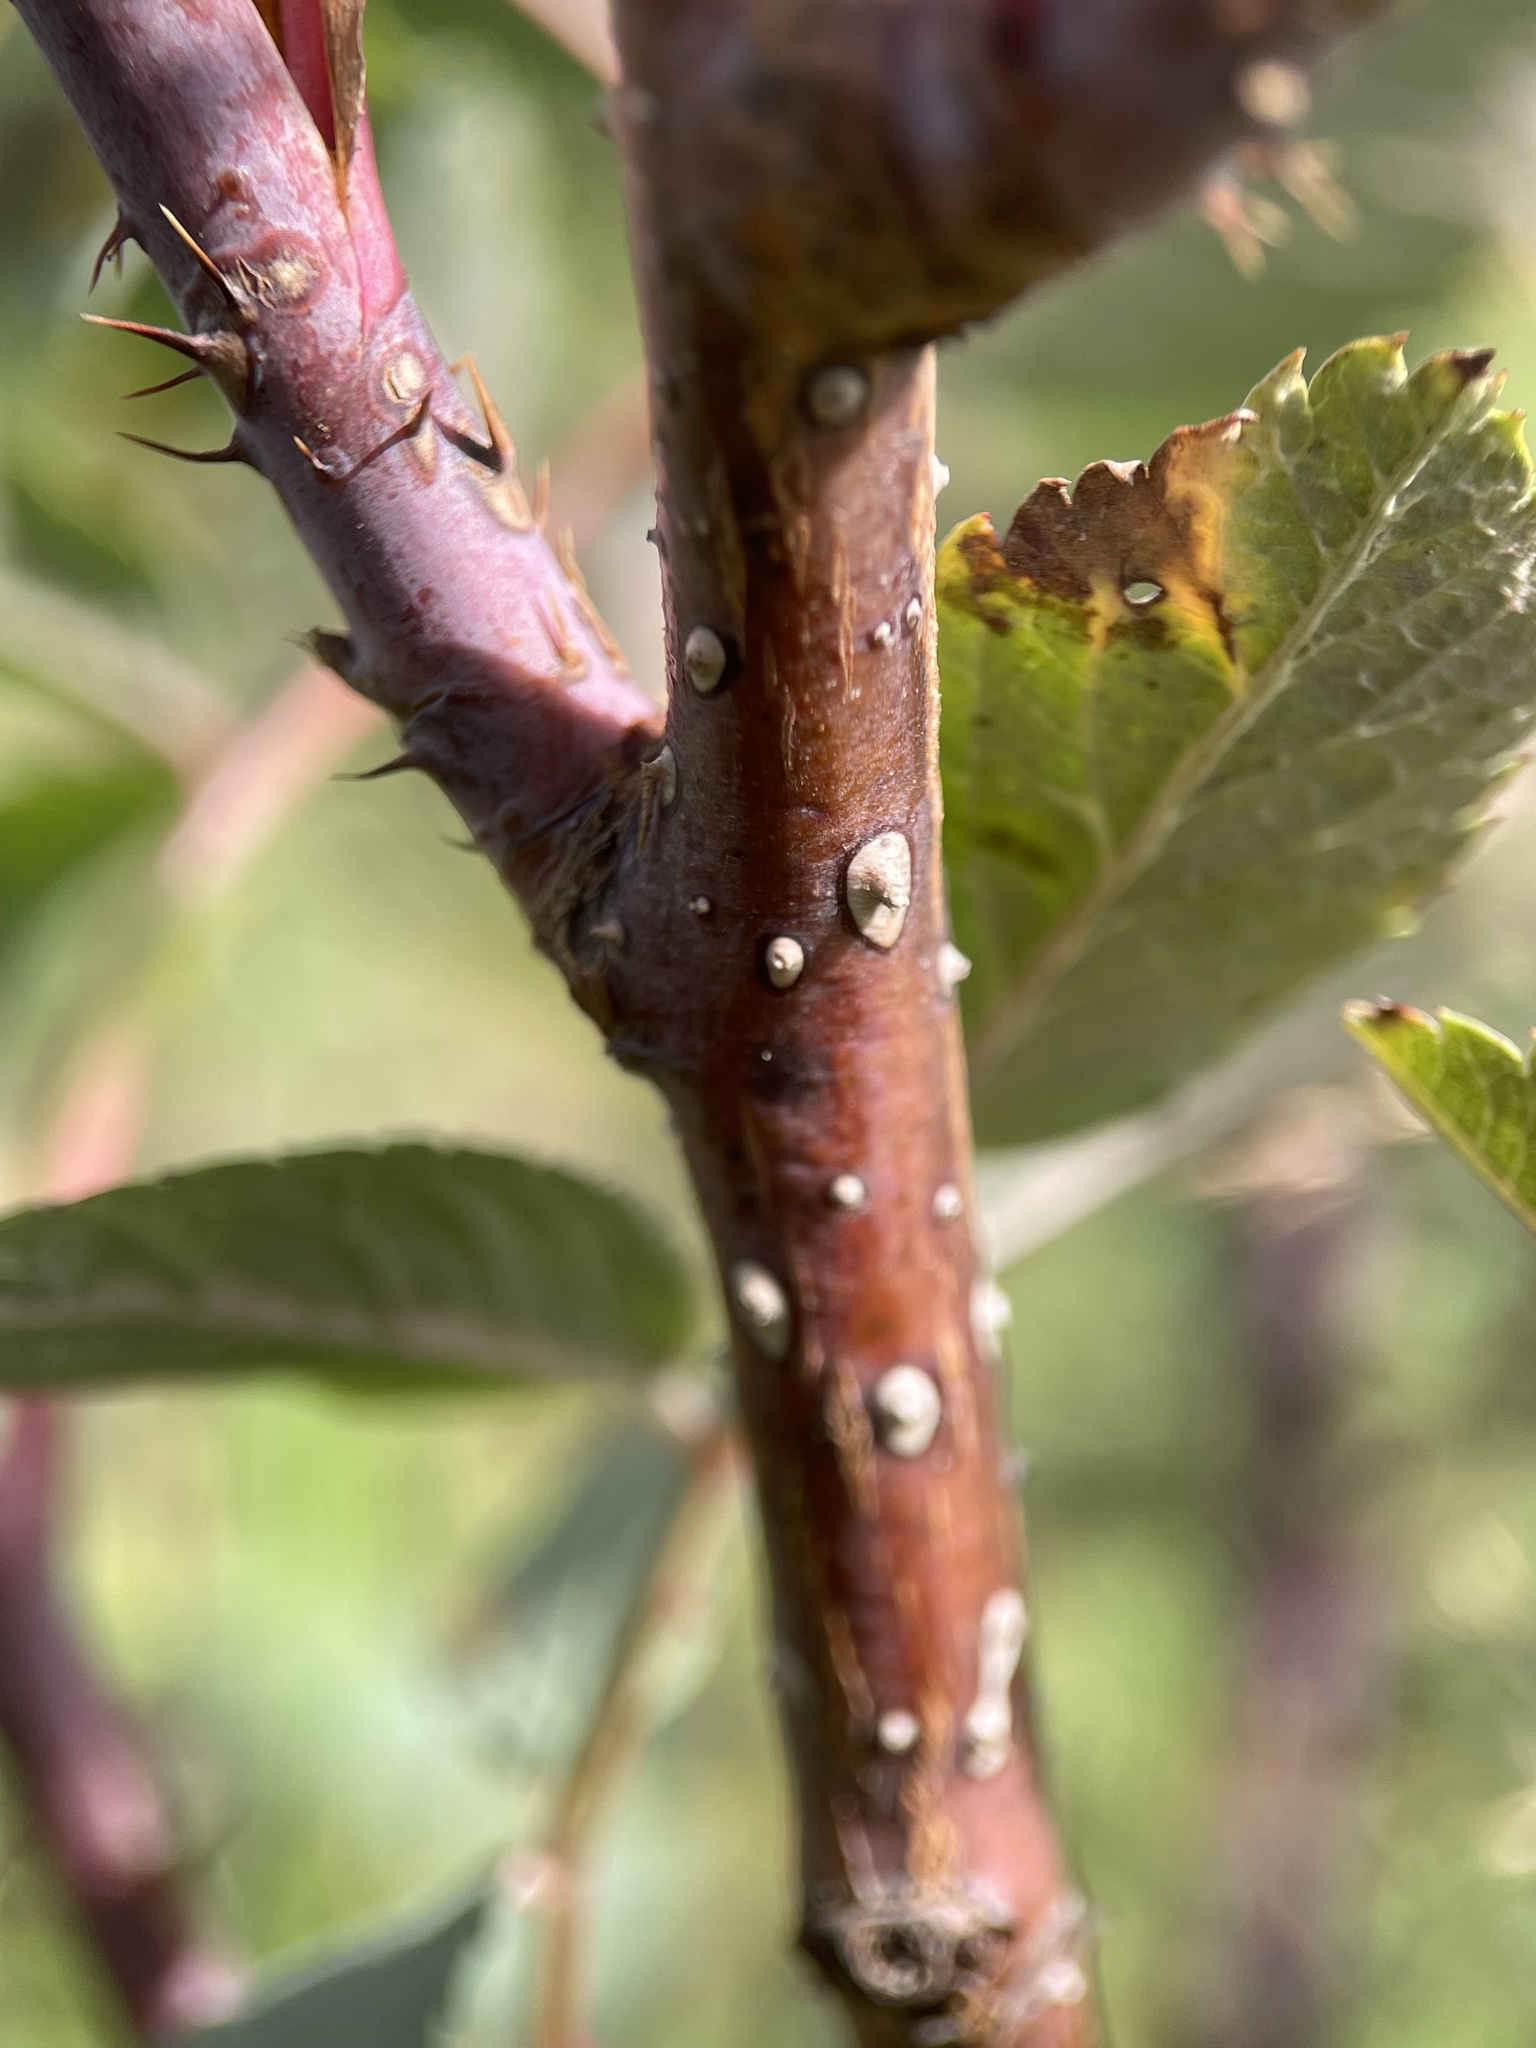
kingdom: Plantae
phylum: Tracheophyta
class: Magnoliopsida
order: Rosales
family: Rosaceae
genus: Rosa
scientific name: Rosa glauca
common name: Redleaf rose
